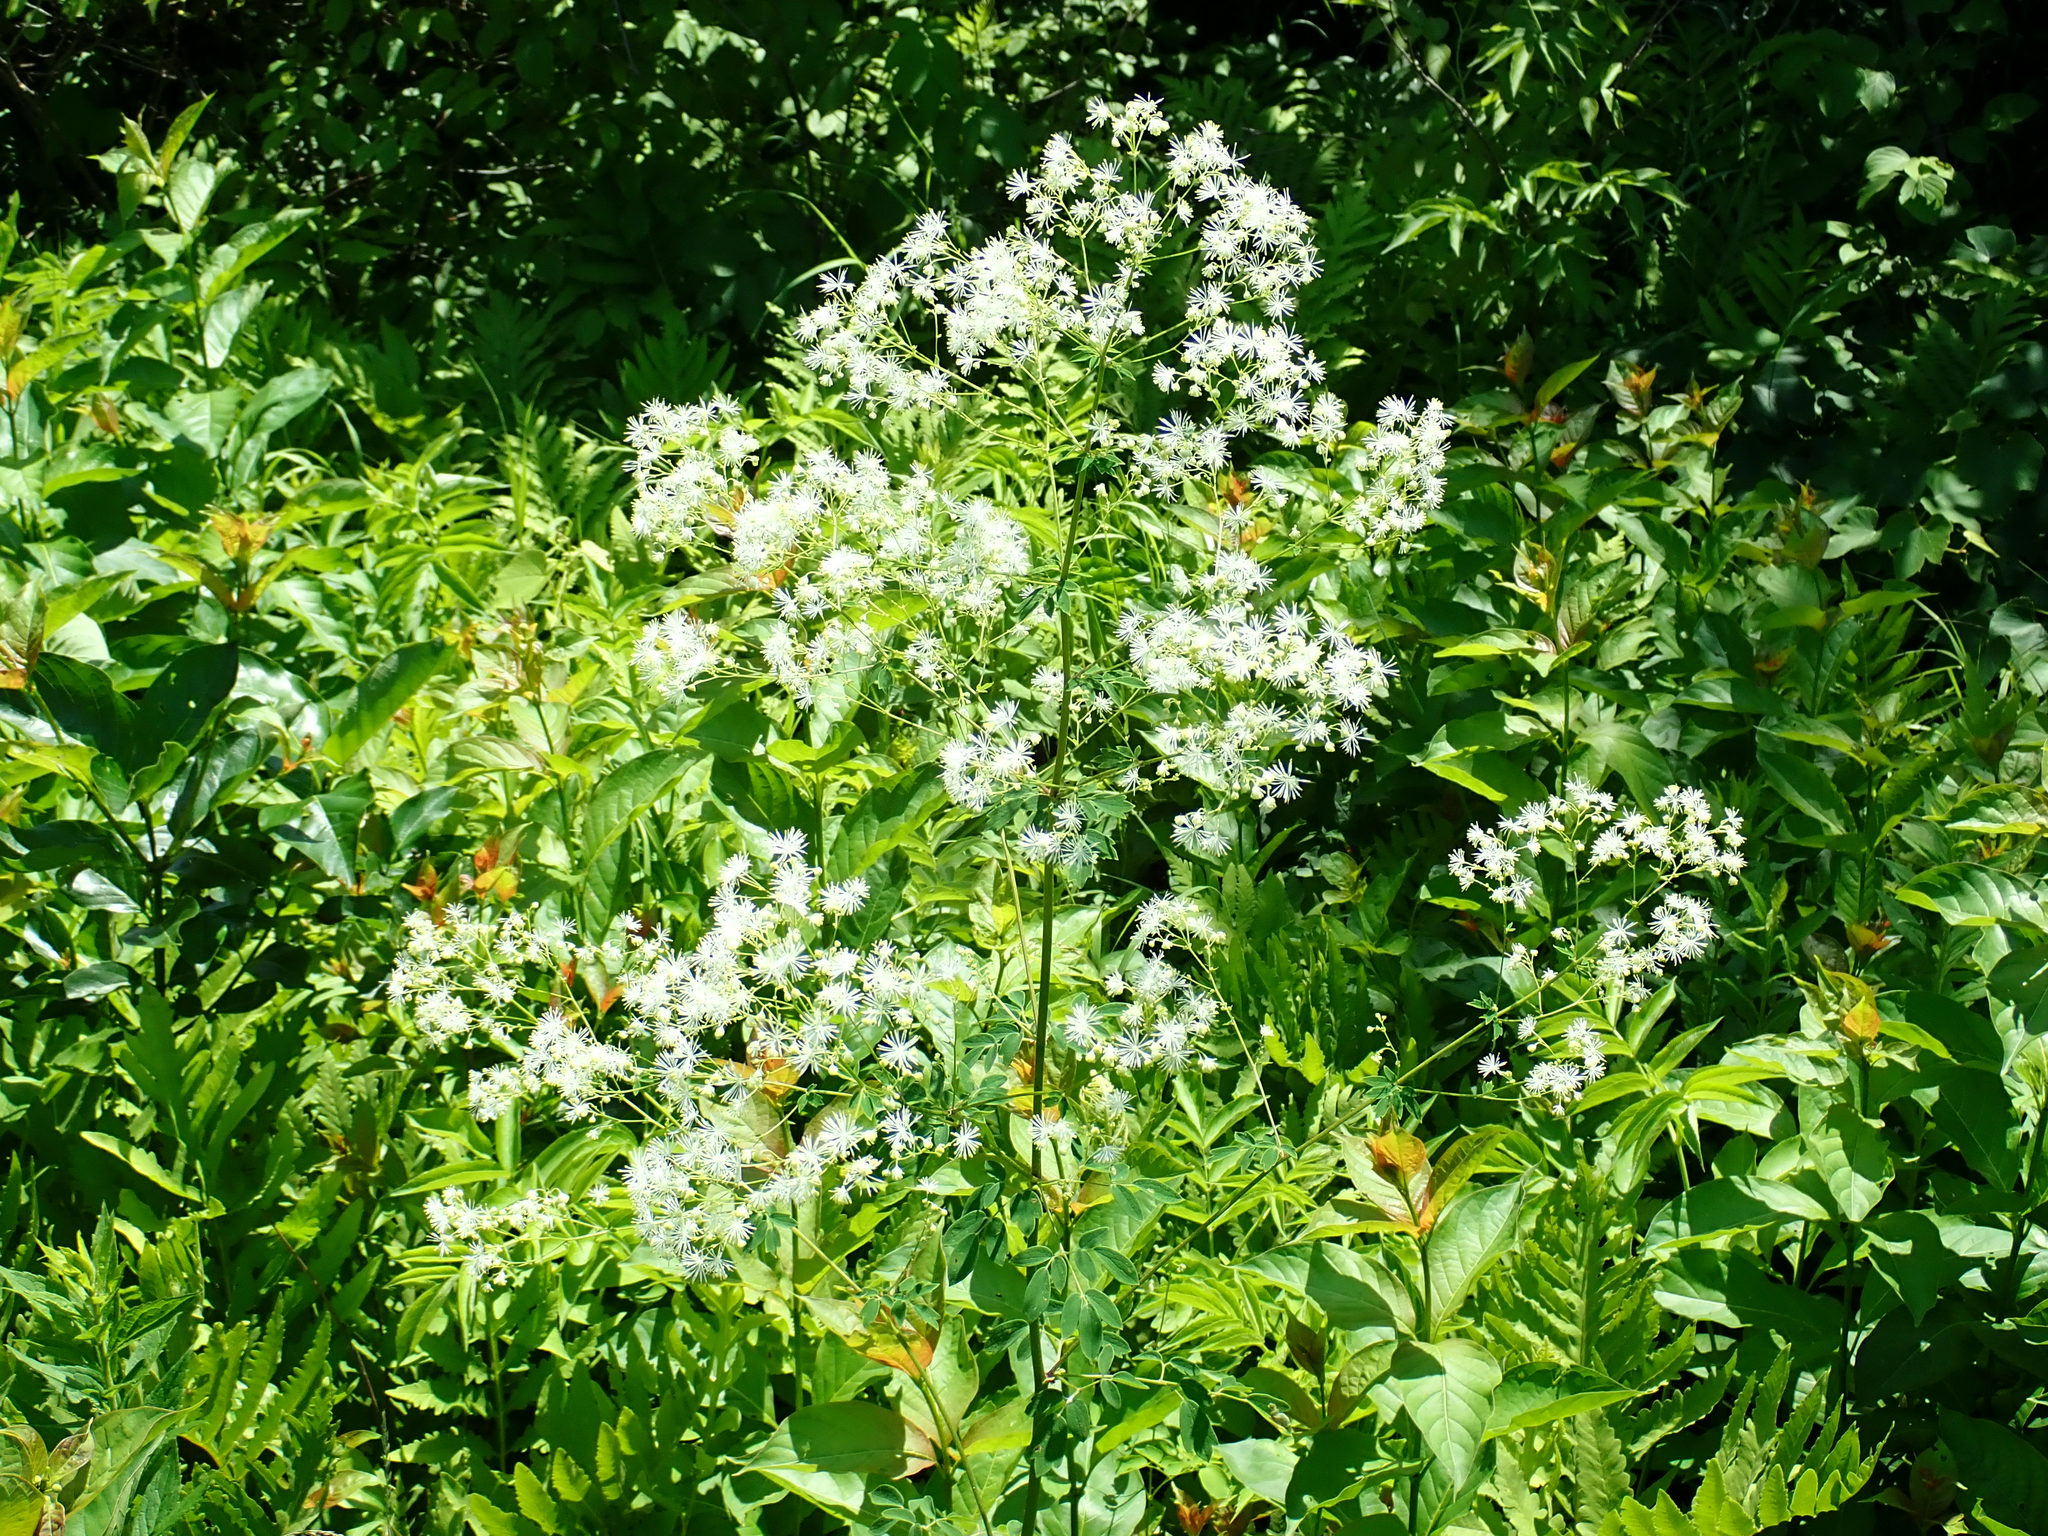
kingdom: Plantae
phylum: Tracheophyta
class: Magnoliopsida
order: Ranunculales
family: Ranunculaceae
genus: Thalictrum
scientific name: Thalictrum pubescens
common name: King-of-the-meadow
